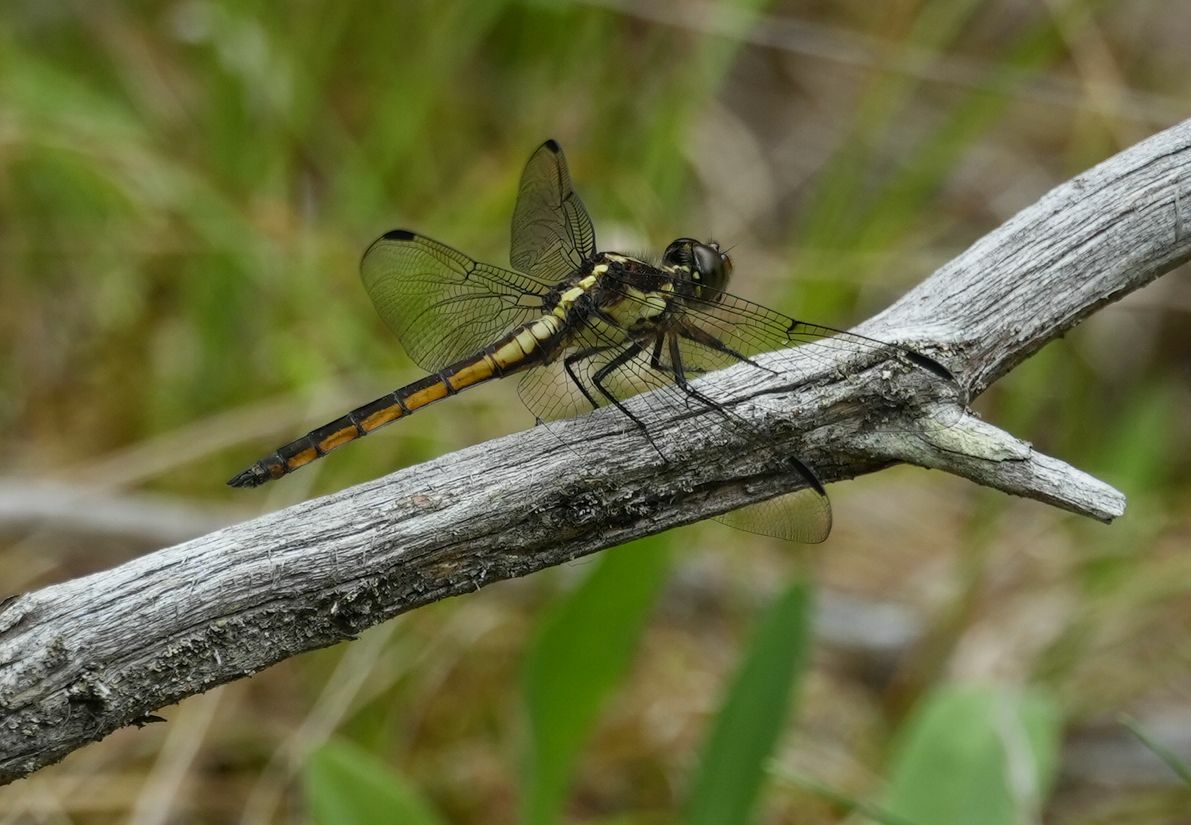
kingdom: Animalia
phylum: Arthropoda
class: Insecta
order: Odonata
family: Libellulidae
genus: Libellula
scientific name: Libellula incesta
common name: Slaty skimmer
